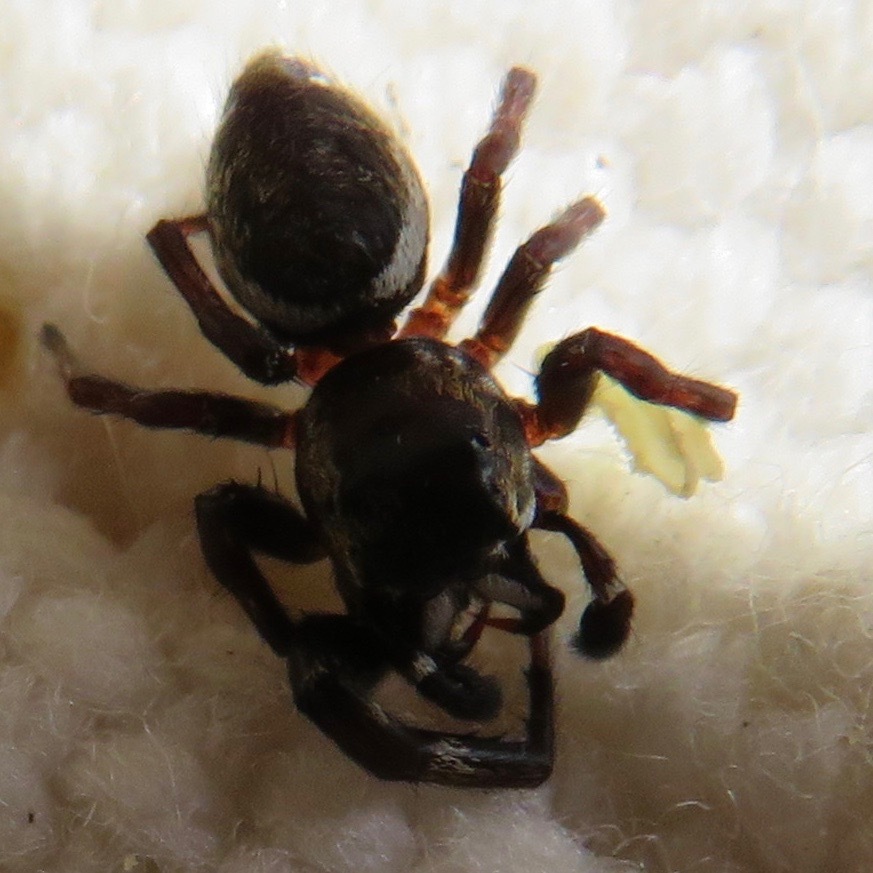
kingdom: Animalia
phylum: Arthropoda
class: Arachnida
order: Araneae
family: Salticidae
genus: Metaphidippus
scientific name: Metaphidippus manni
